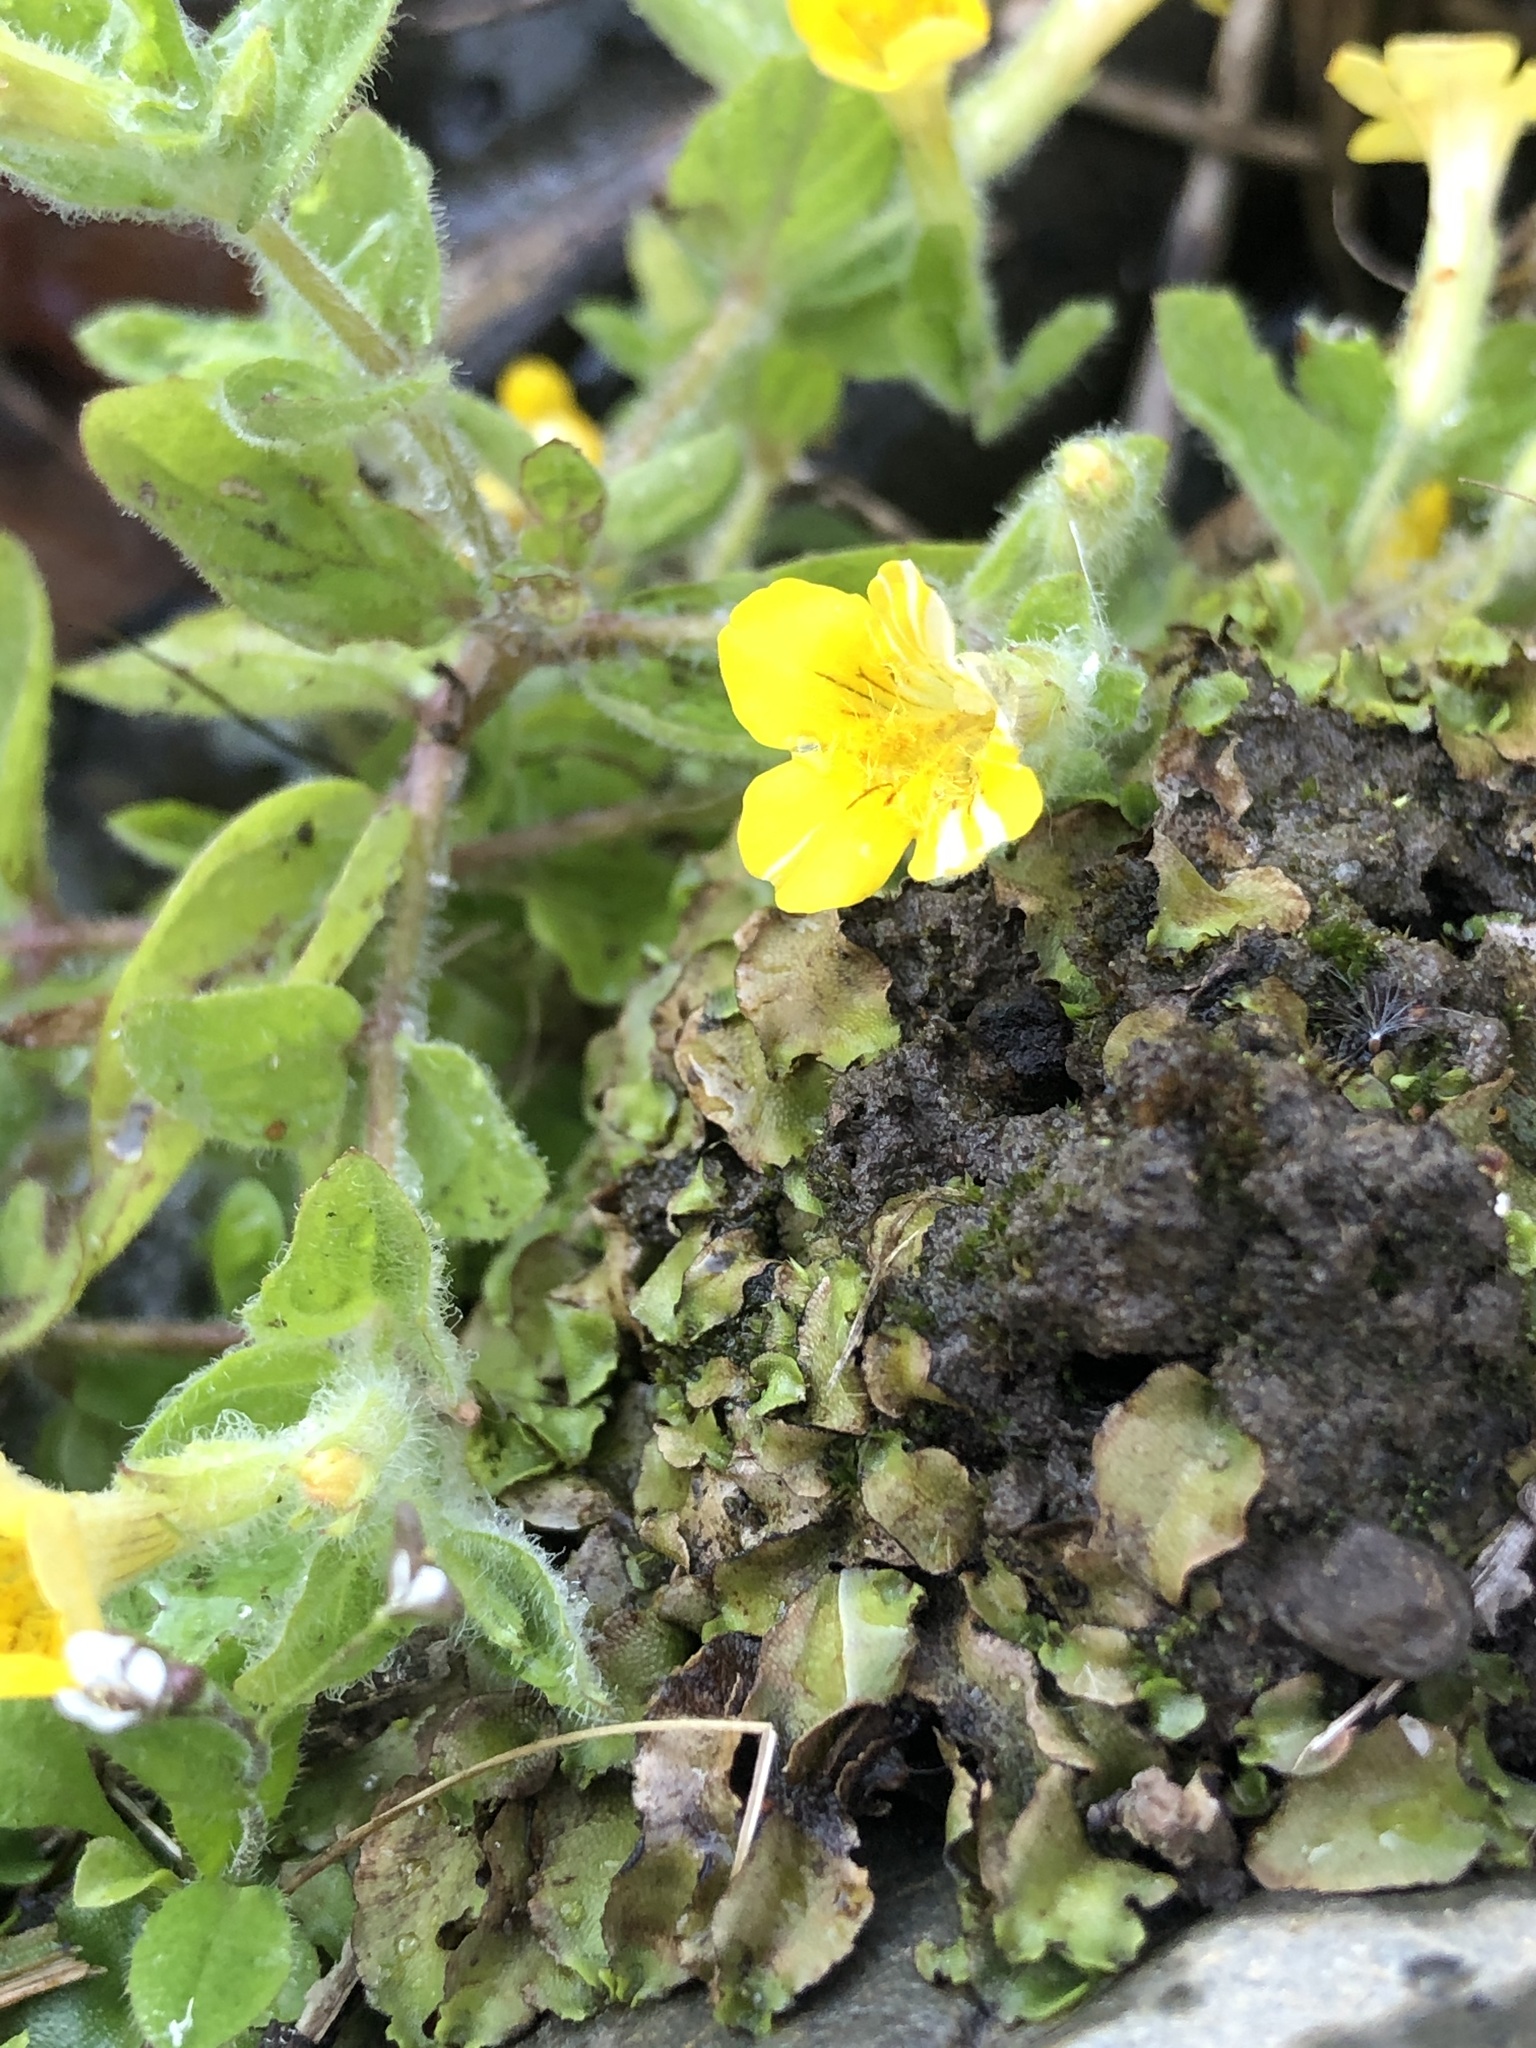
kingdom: Plantae
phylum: Tracheophyta
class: Magnoliopsida
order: Lamiales
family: Phrymaceae
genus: Erythranthe
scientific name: Erythranthe moschata
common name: Muskflower
